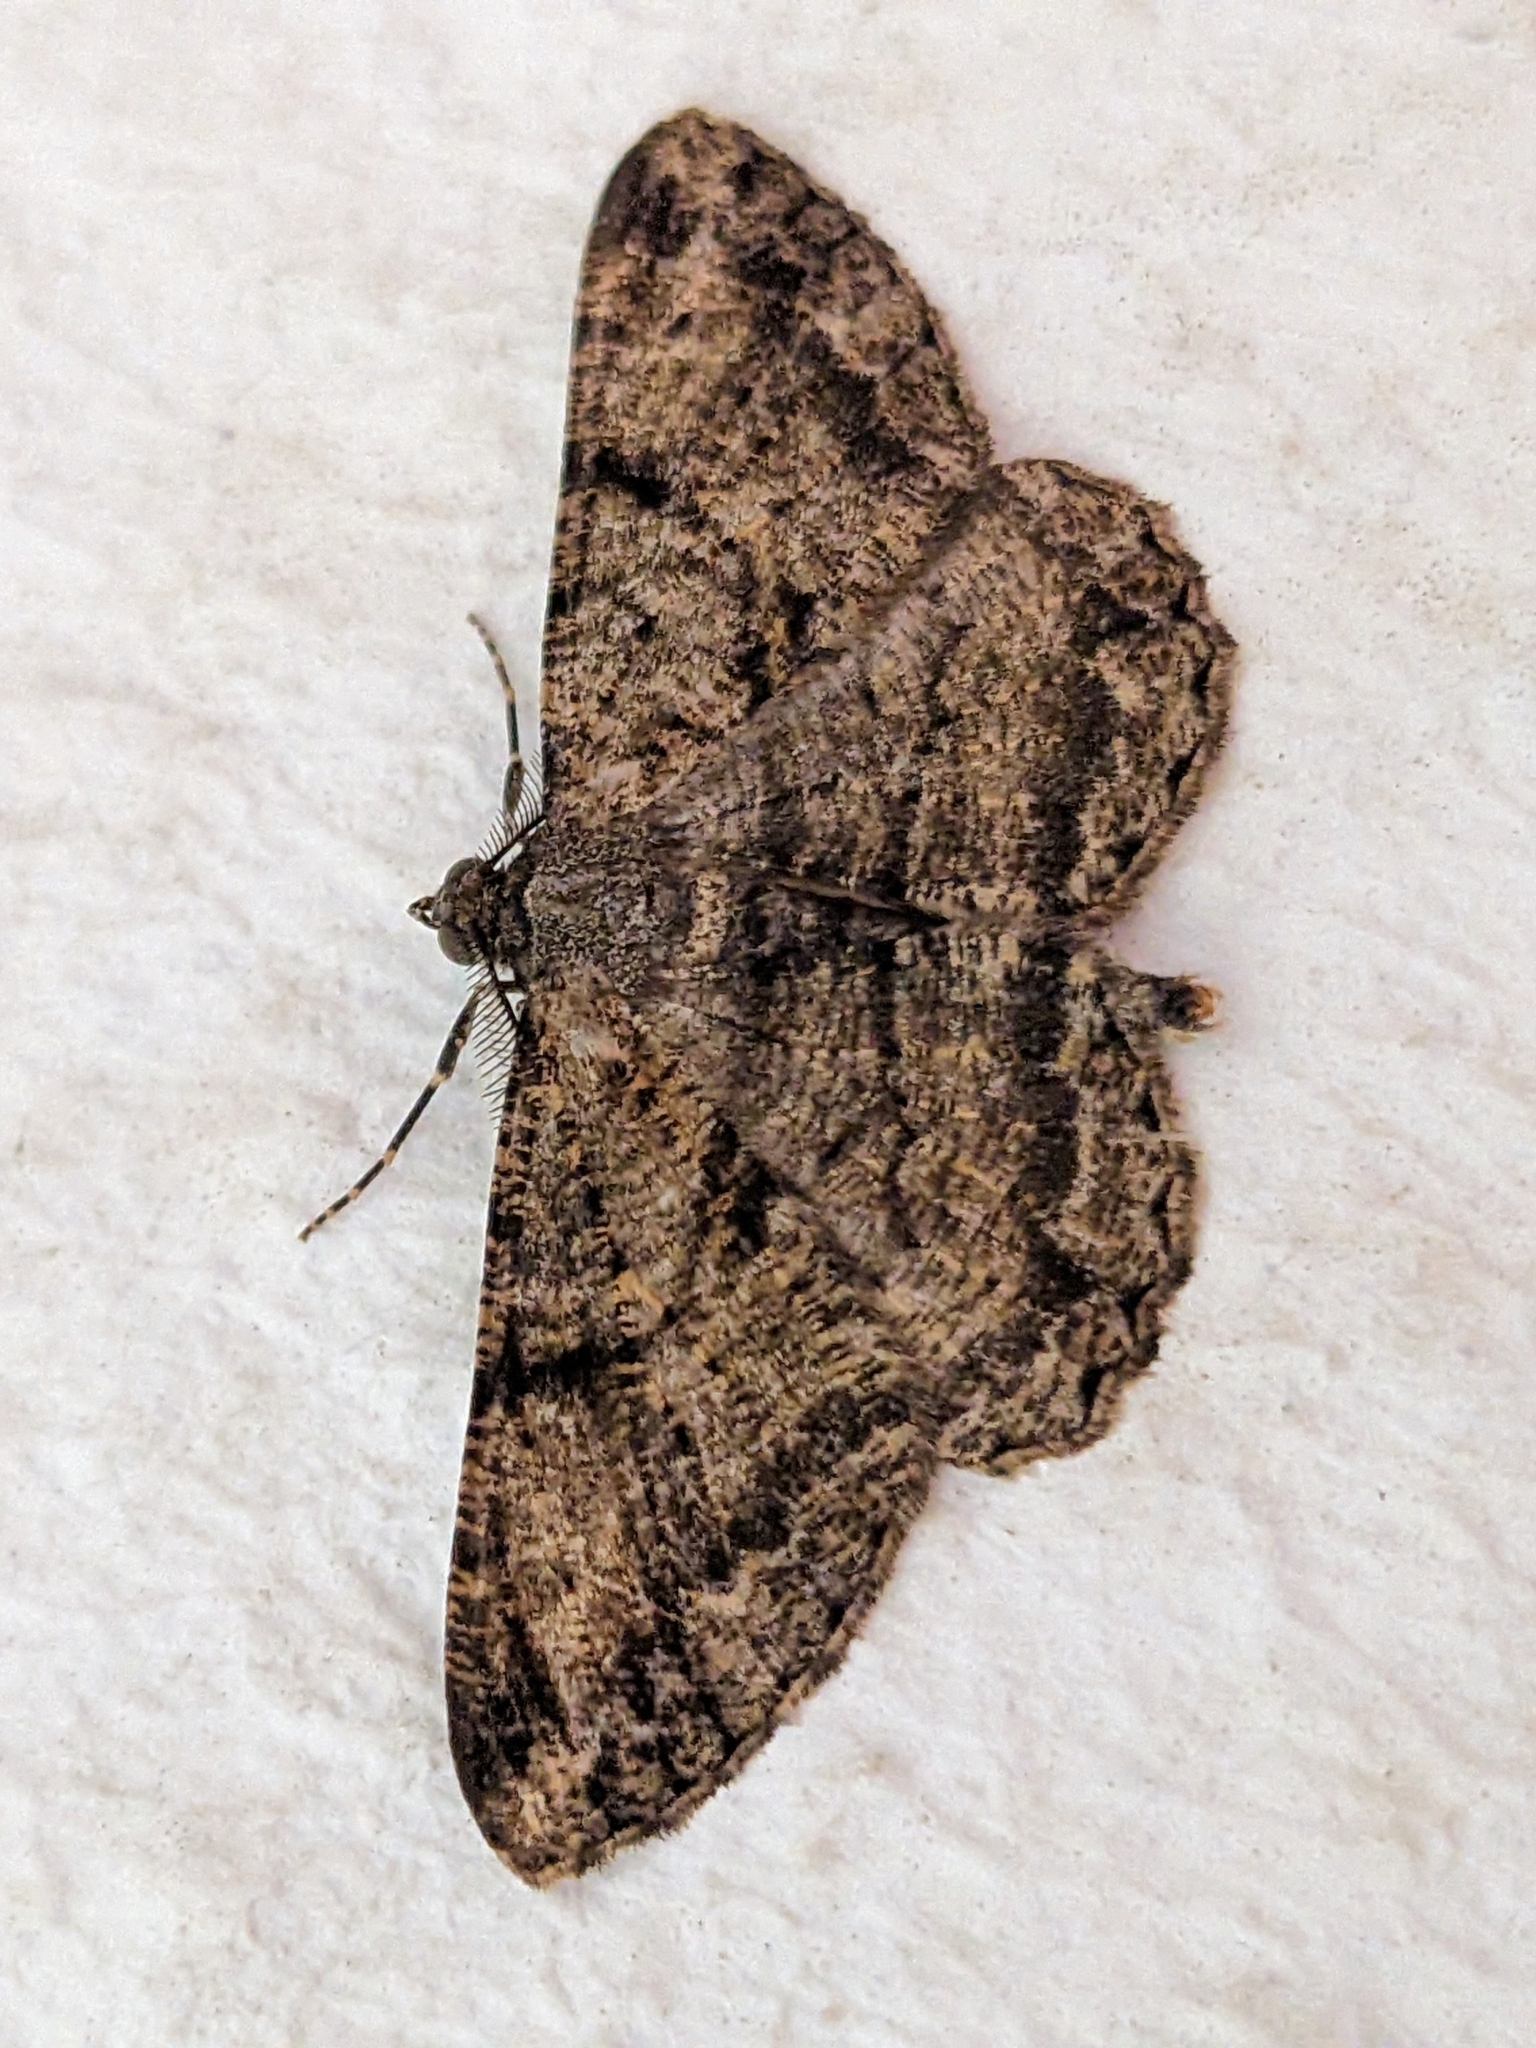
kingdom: Animalia
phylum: Arthropoda
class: Insecta
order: Lepidoptera
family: Geometridae
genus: Peribatodes
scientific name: Peribatodes rhomboidaria
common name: Willow beauty
